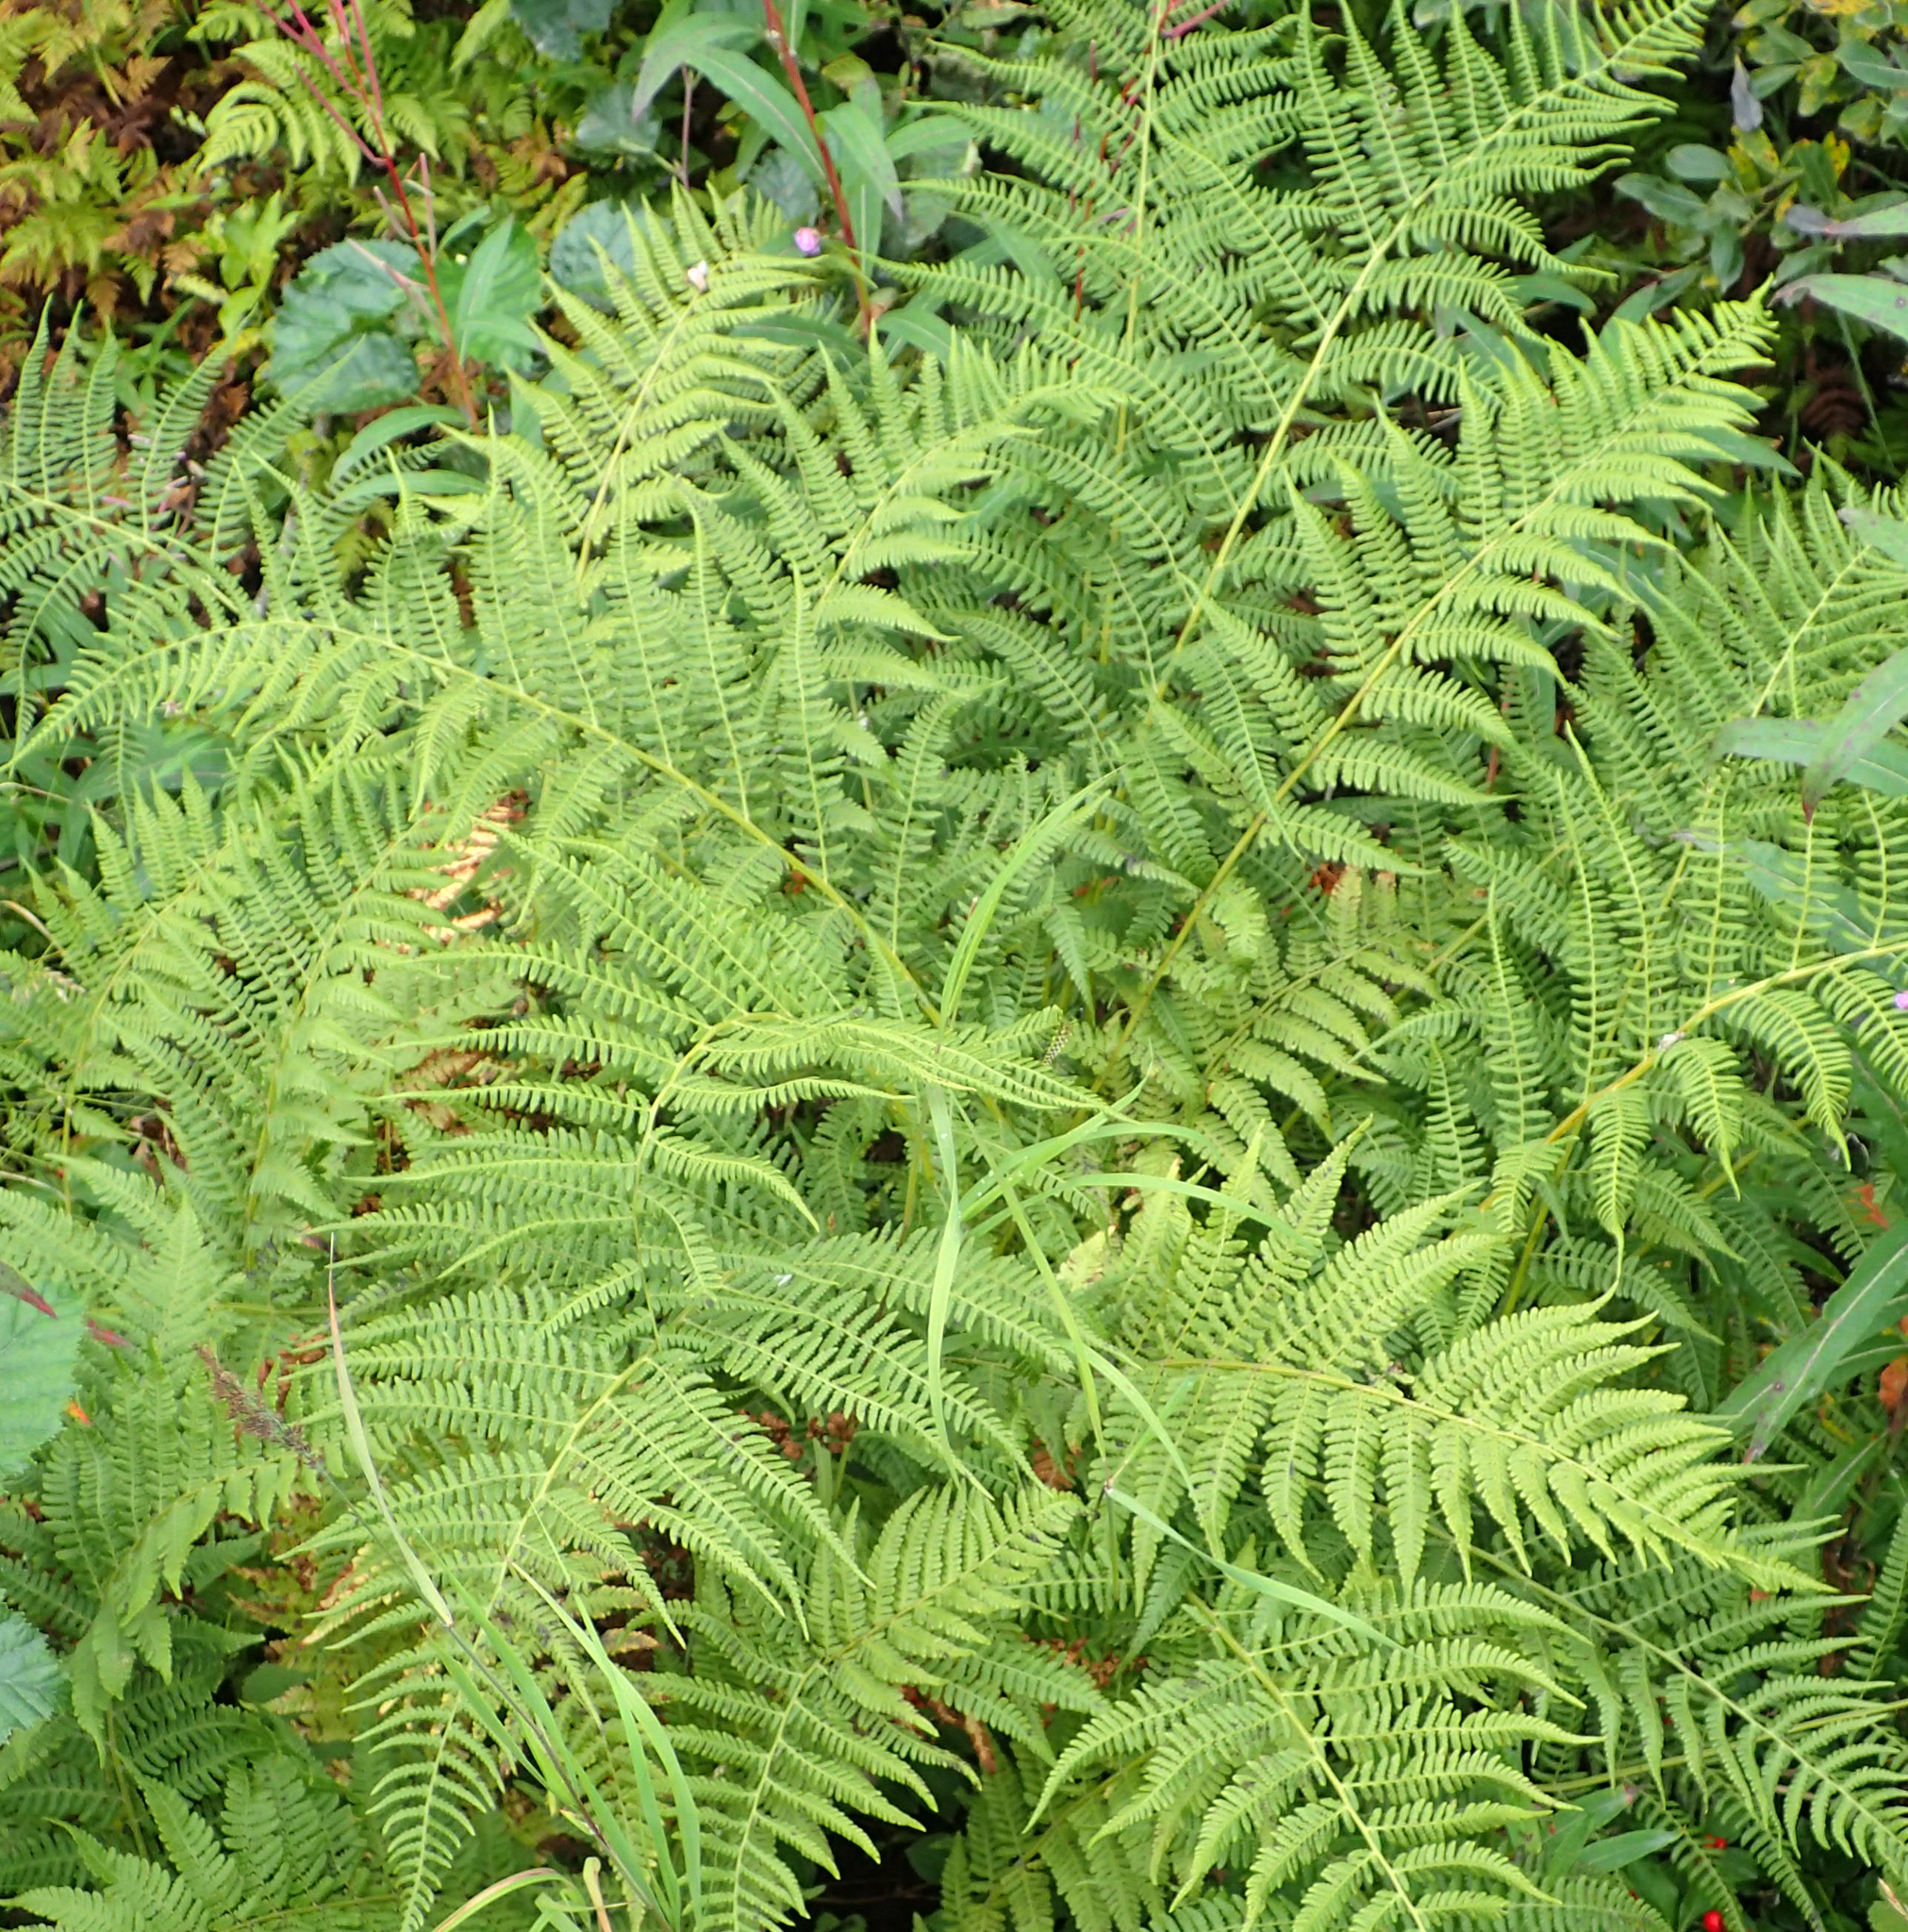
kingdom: Plantae
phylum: Tracheophyta
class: Polypodiopsida
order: Polypodiales
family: Athyriaceae
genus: Athyrium
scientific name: Athyrium filix-femina
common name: Lady fern
